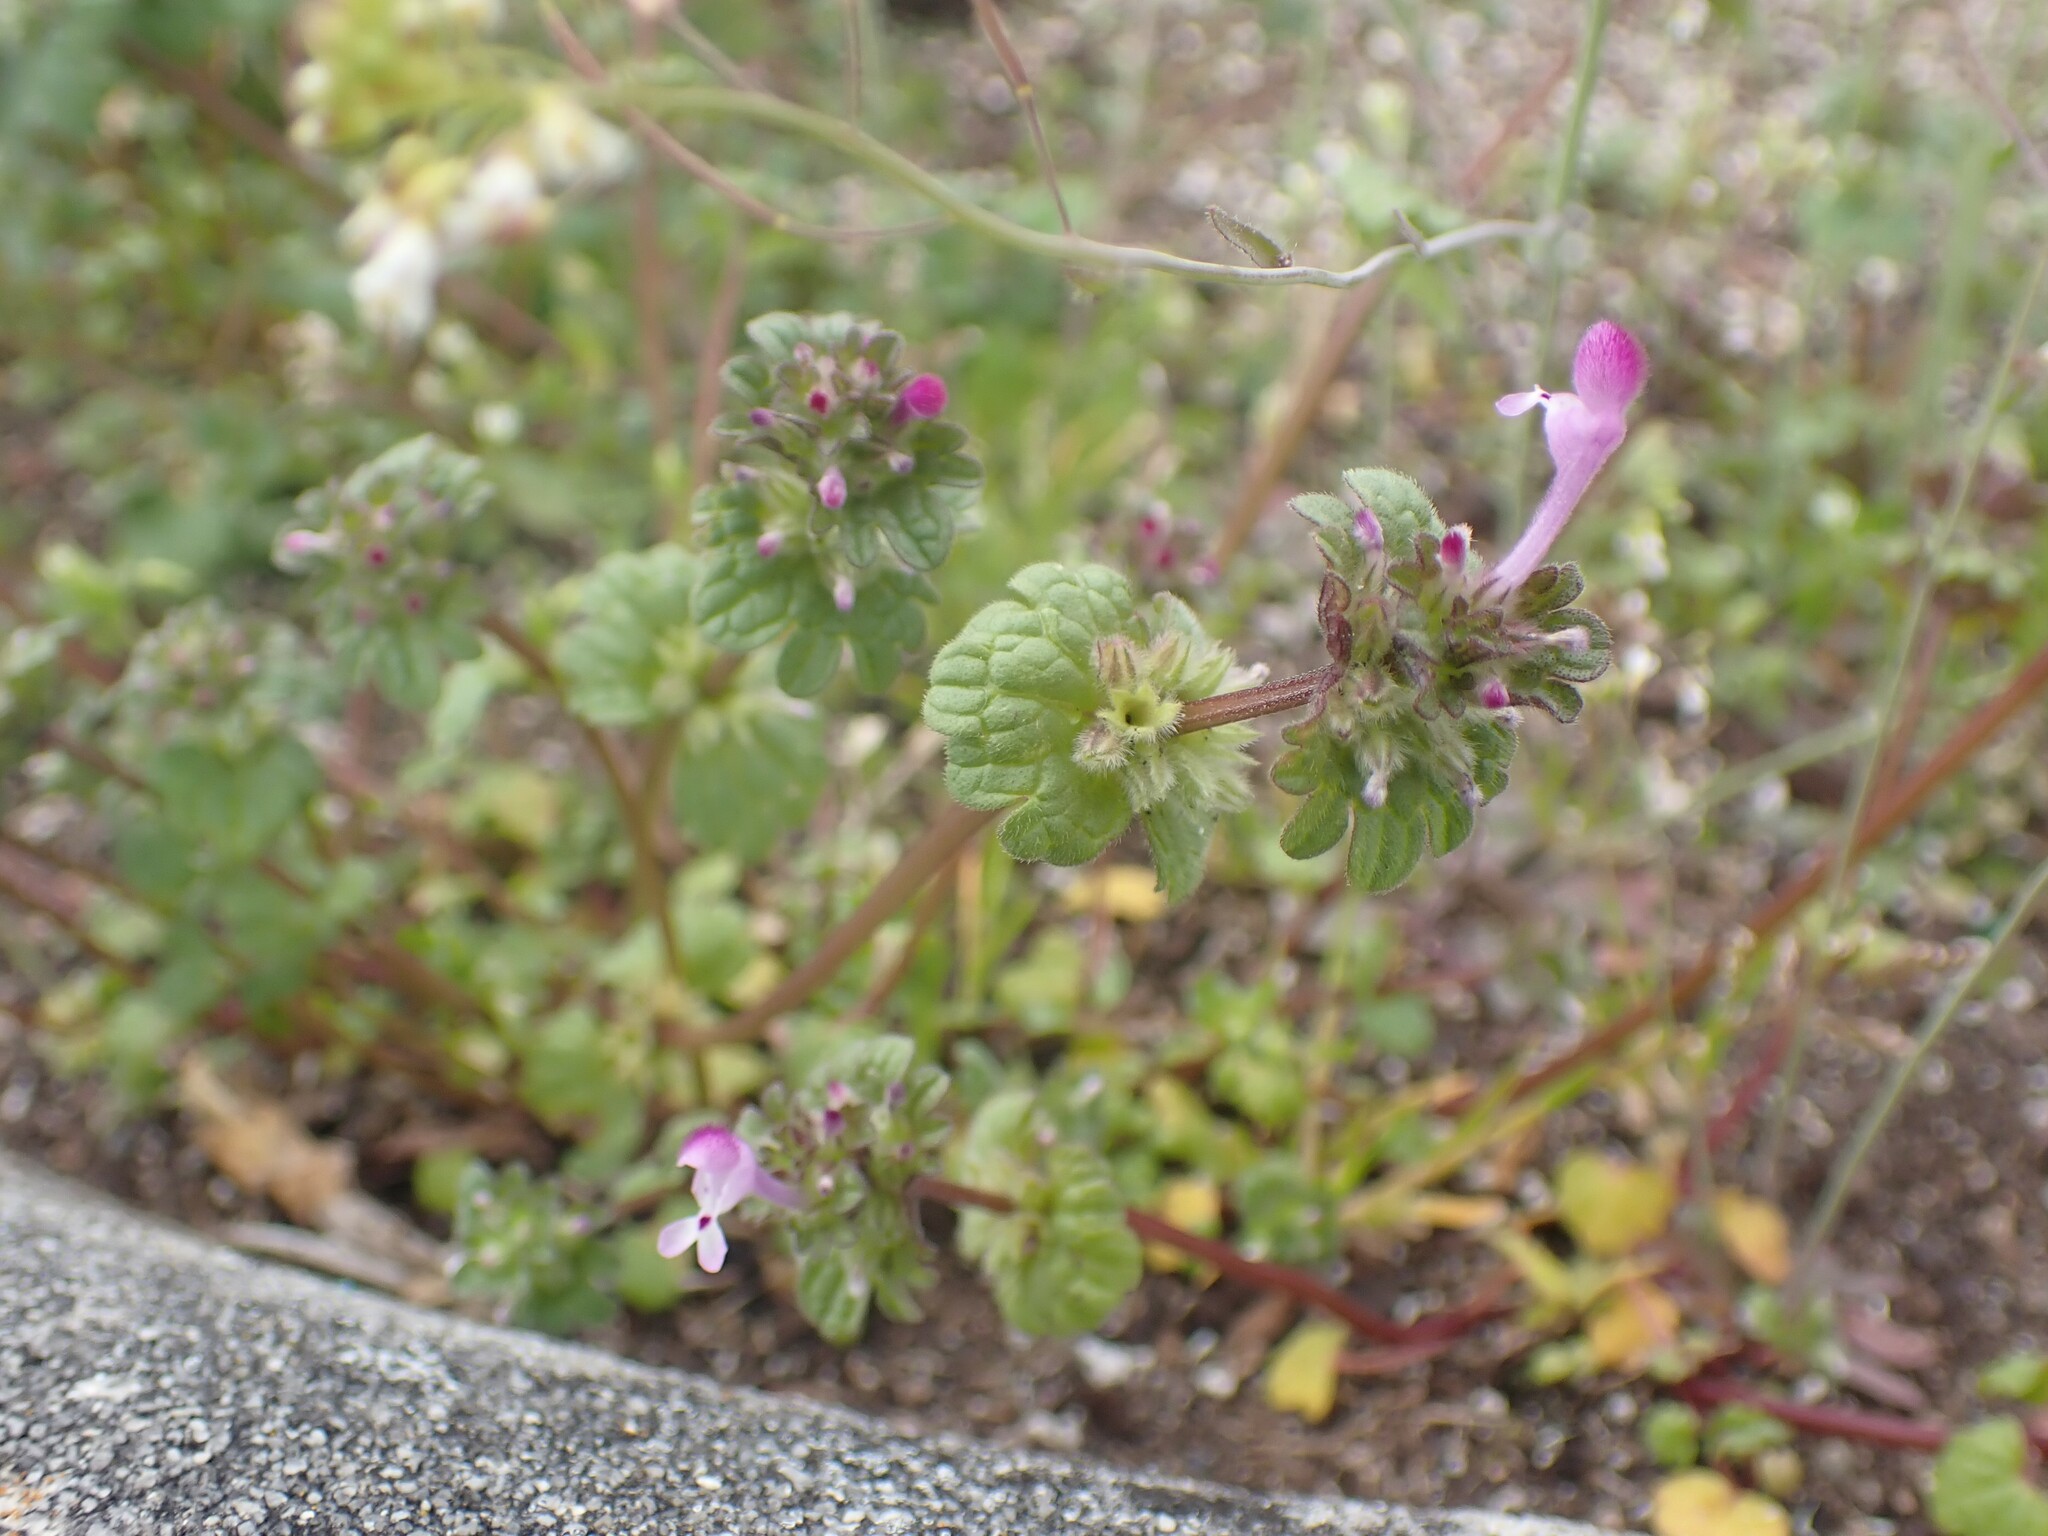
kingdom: Plantae
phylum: Tracheophyta
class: Magnoliopsida
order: Lamiales
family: Lamiaceae
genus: Lamium
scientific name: Lamium amplexicaule
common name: Henbit dead-nettle
